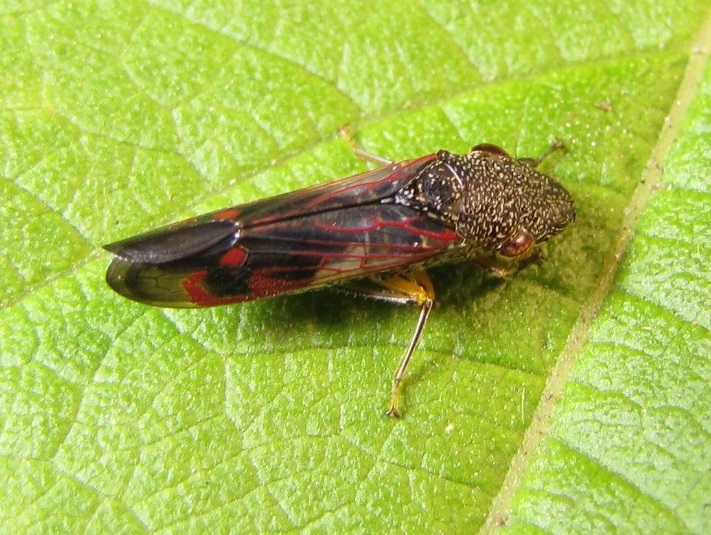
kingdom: Animalia
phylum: Arthropoda
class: Insecta
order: Hemiptera
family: Cicadellidae
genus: Homalodisca
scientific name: Homalodisca vitripennis
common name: Glassy-winged sharpshooter
